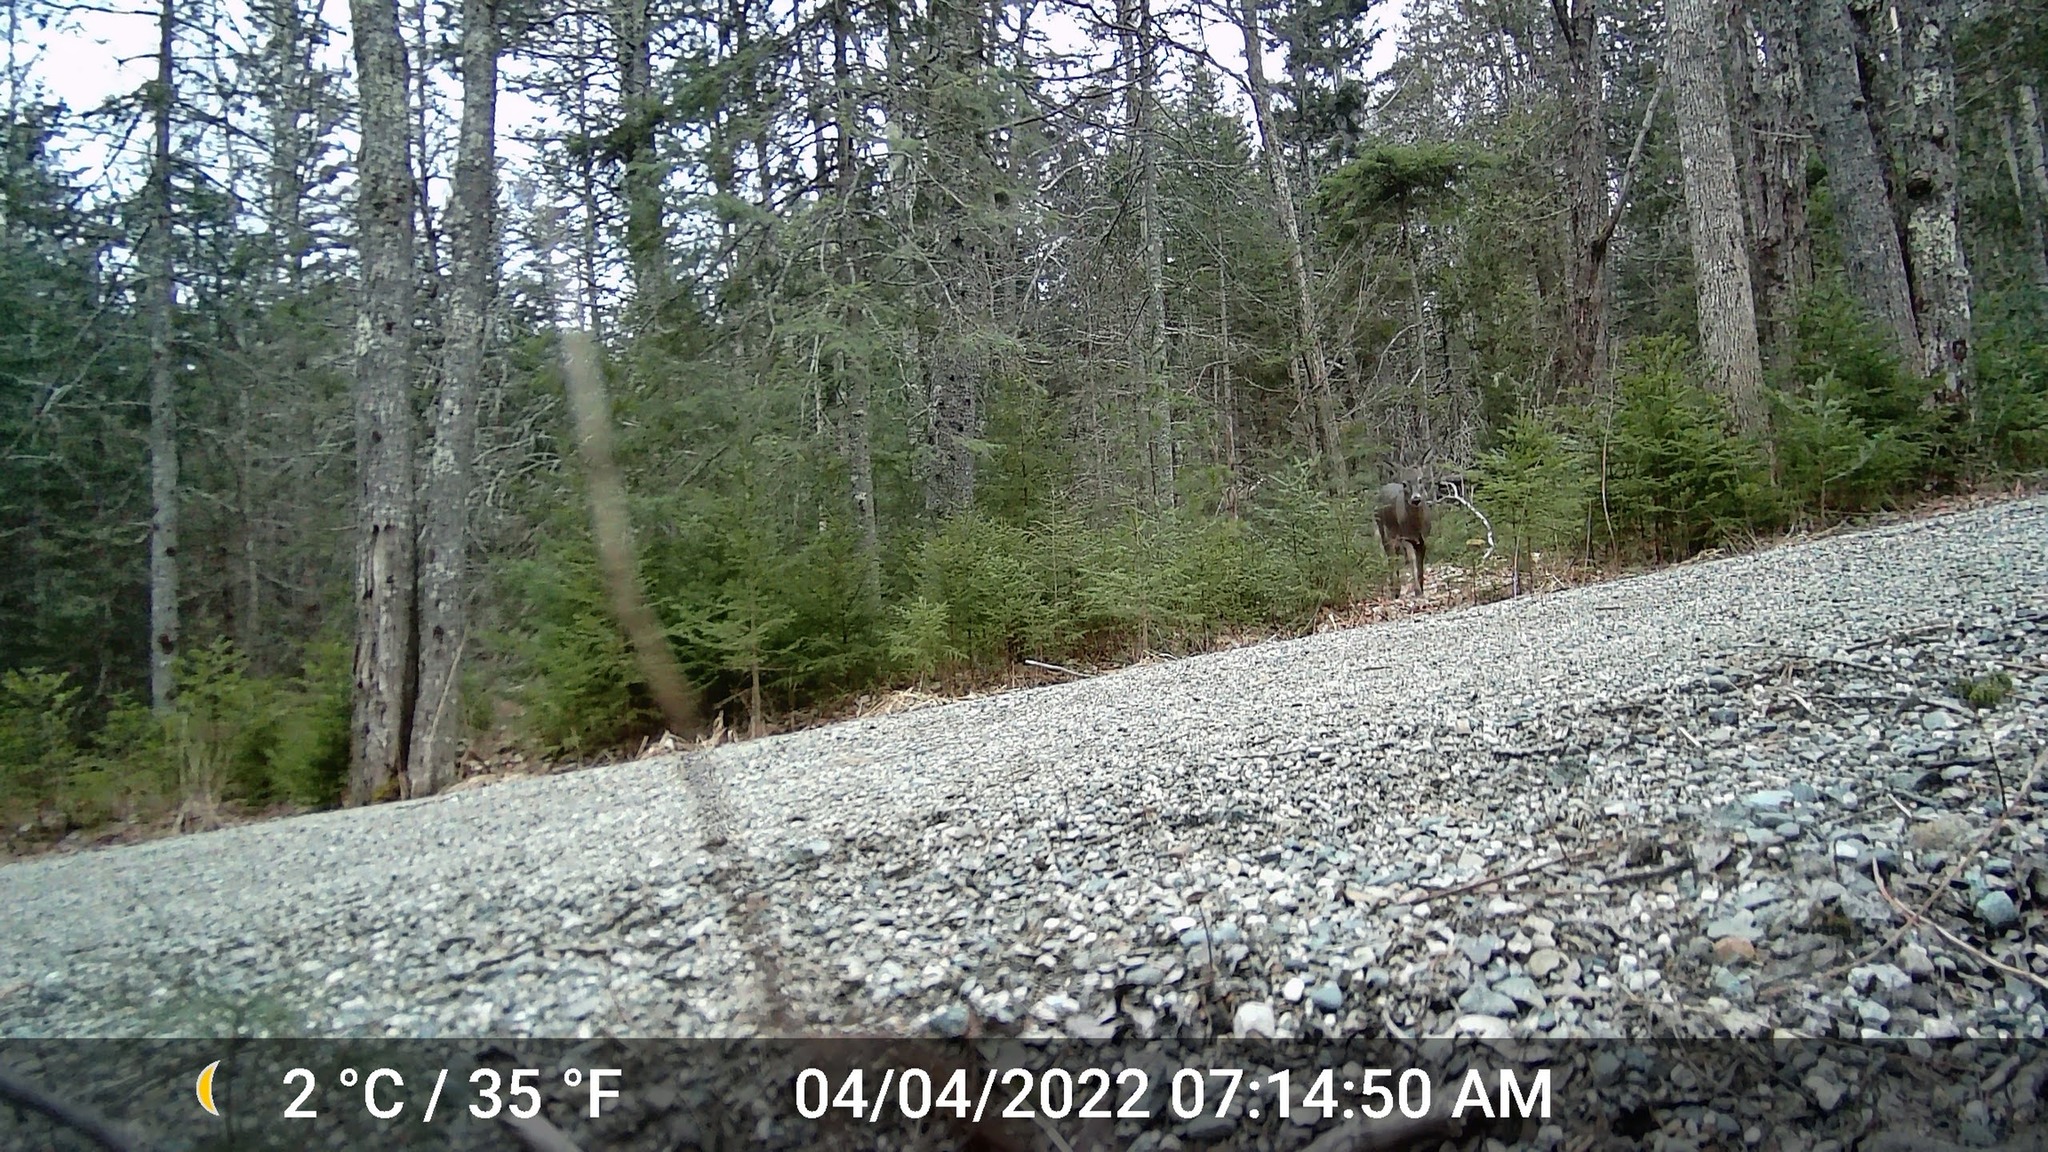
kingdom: Animalia
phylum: Chordata
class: Mammalia
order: Artiodactyla
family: Cervidae
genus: Odocoileus
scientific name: Odocoileus virginianus
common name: White-tailed deer
